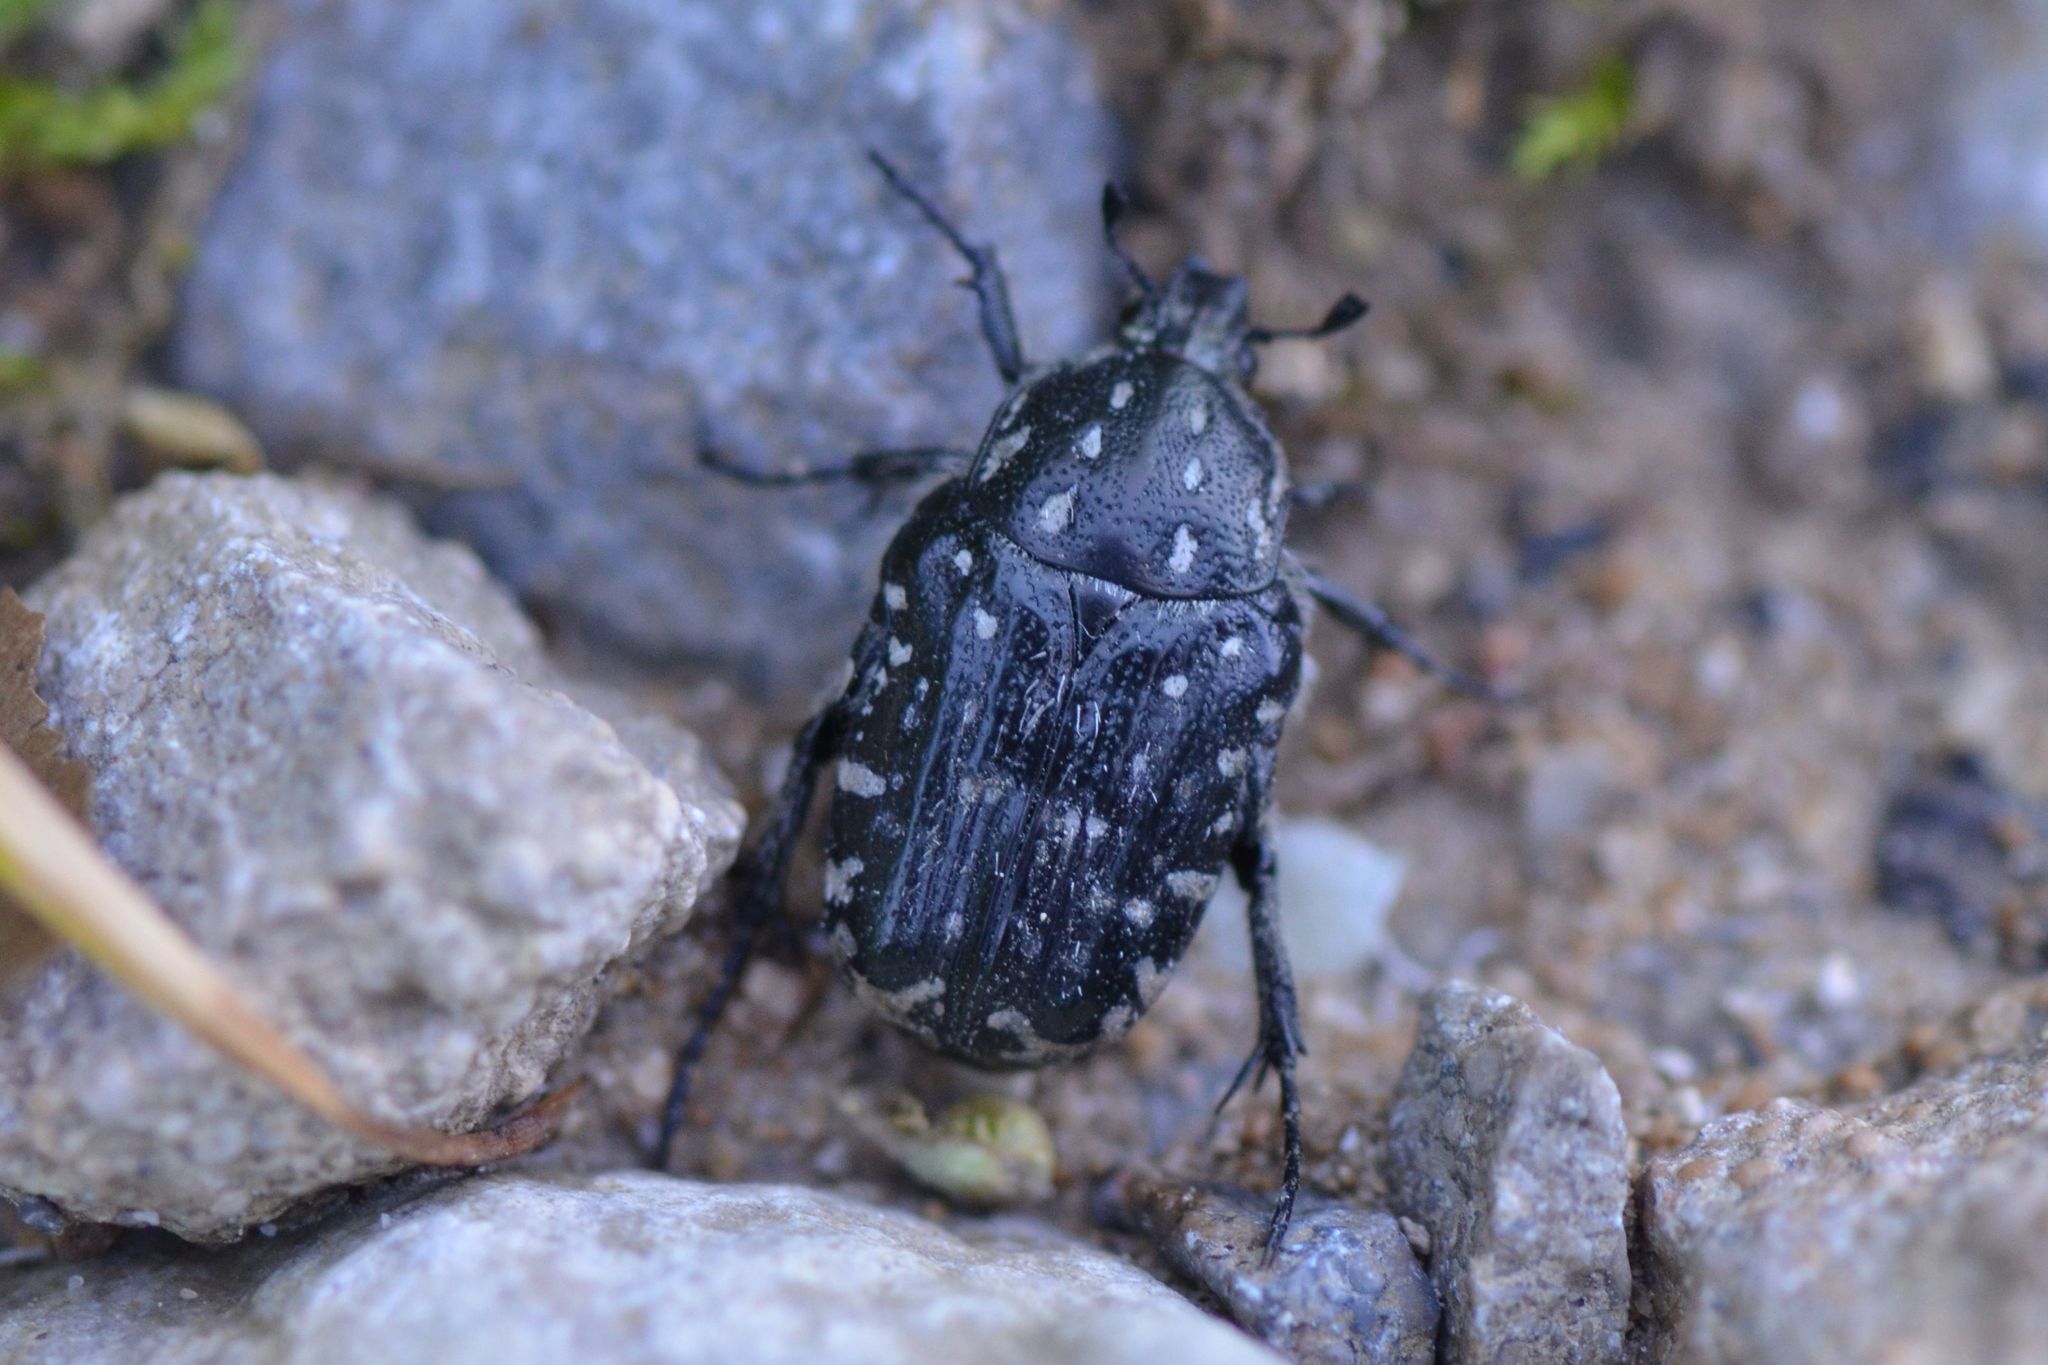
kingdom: Animalia
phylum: Arthropoda
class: Insecta
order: Coleoptera
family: Scarabaeidae
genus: Oxythyrea
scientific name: Oxythyrea funesta
